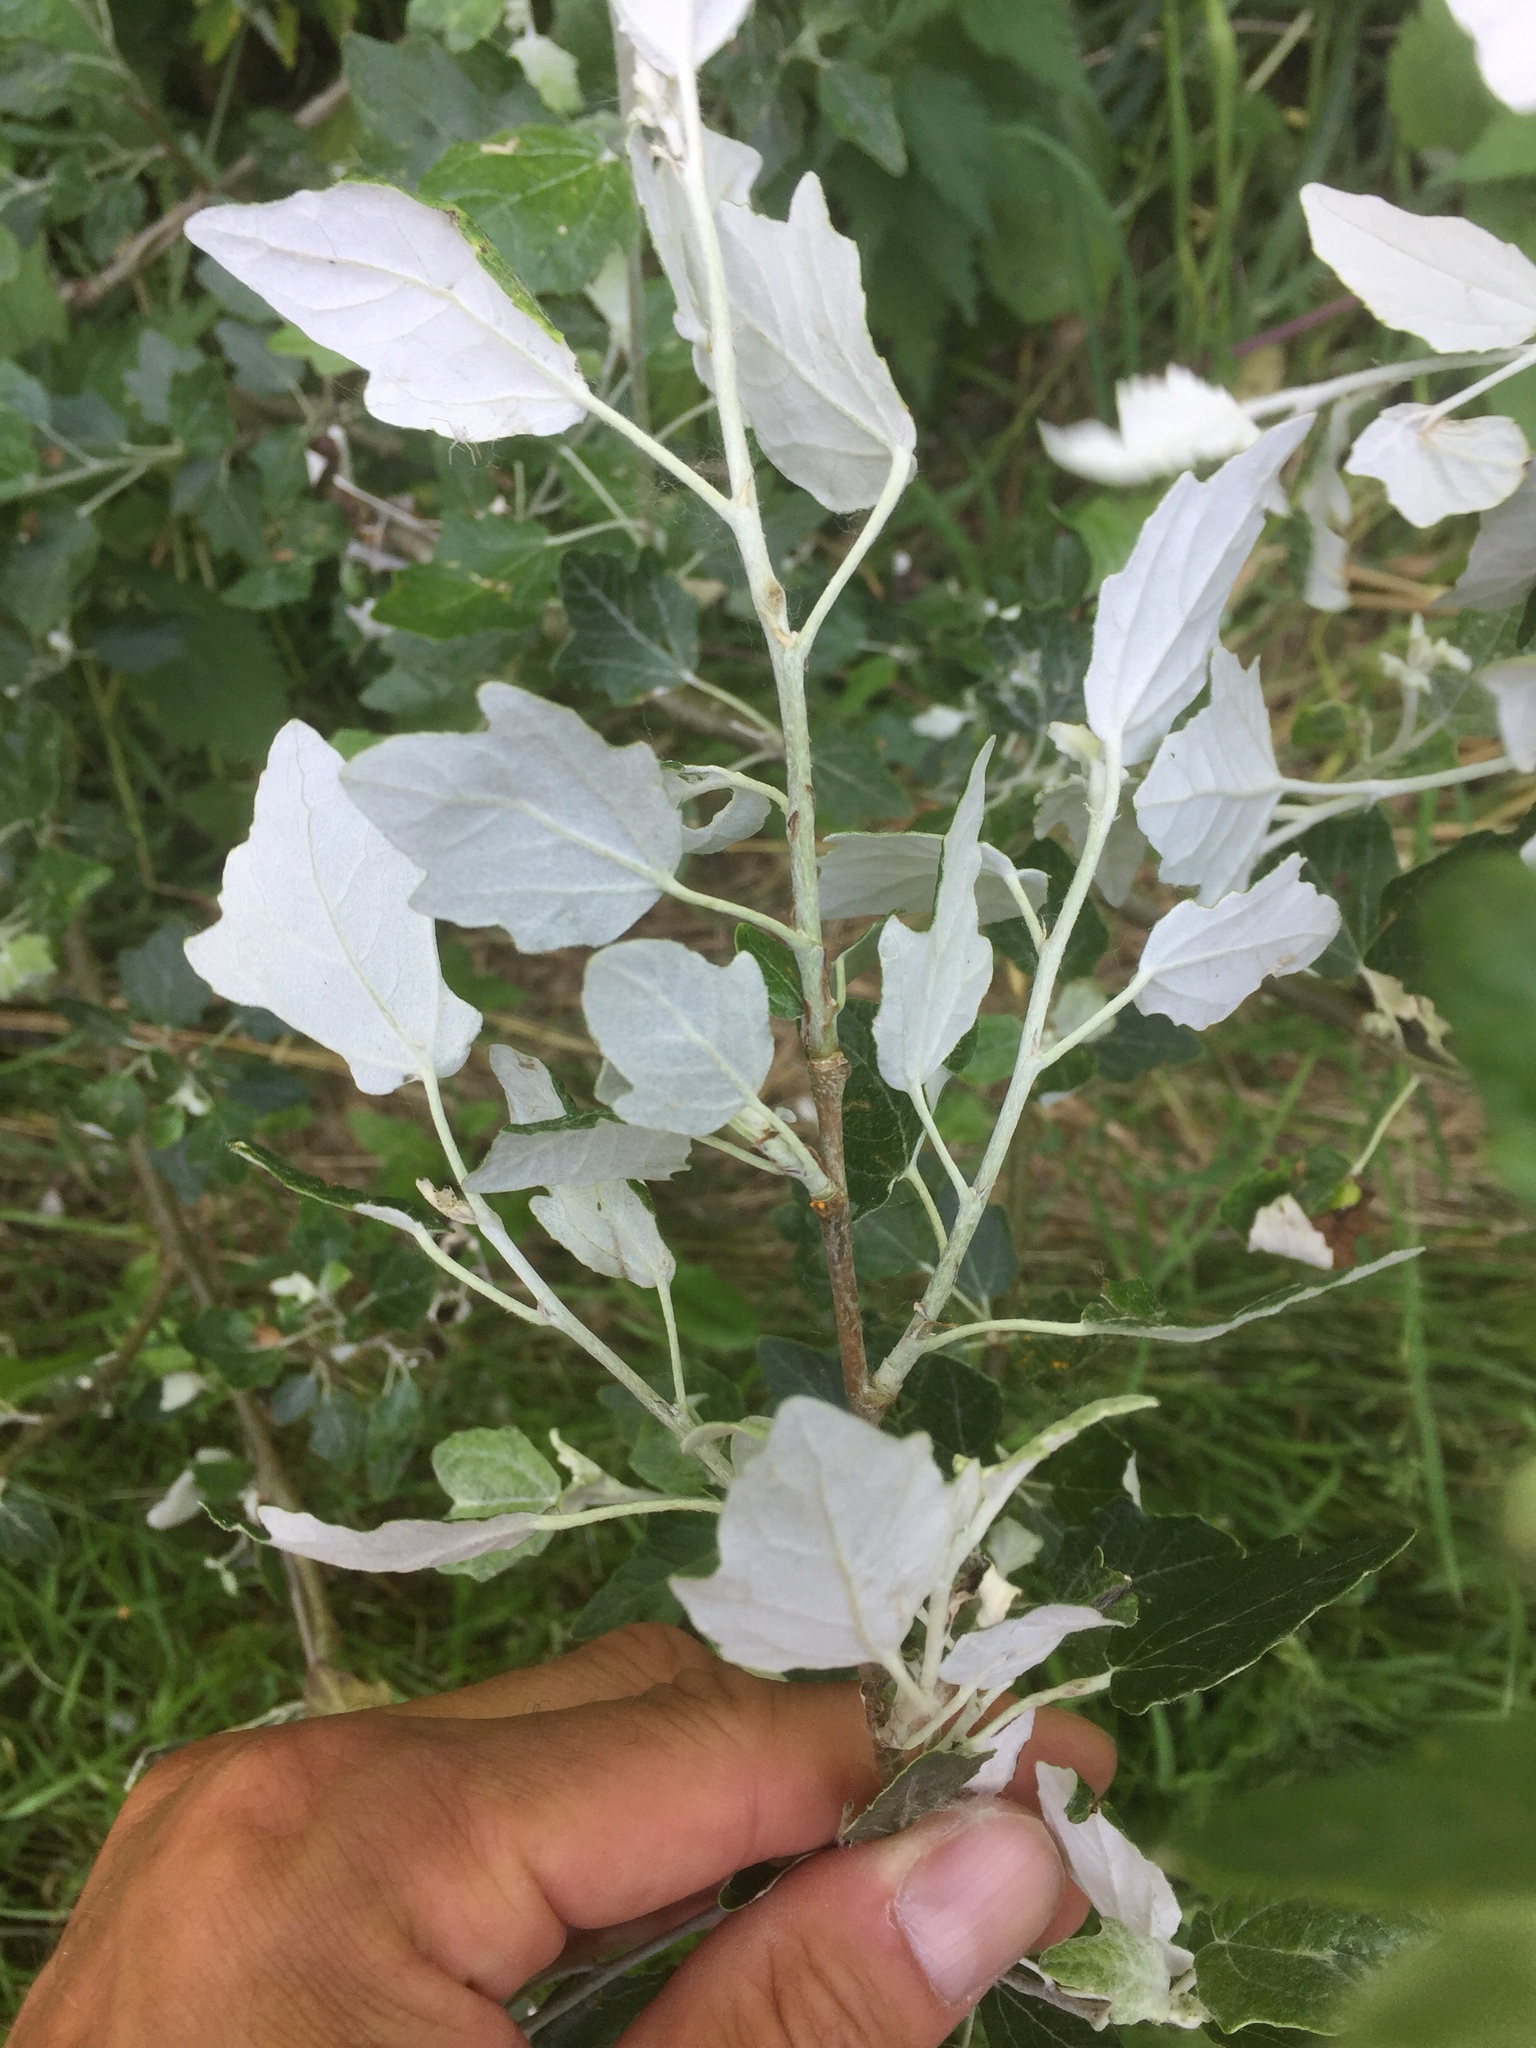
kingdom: Plantae
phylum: Tracheophyta
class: Magnoliopsida
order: Malpighiales
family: Salicaceae
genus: Populus
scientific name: Populus alba
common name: White poplar
